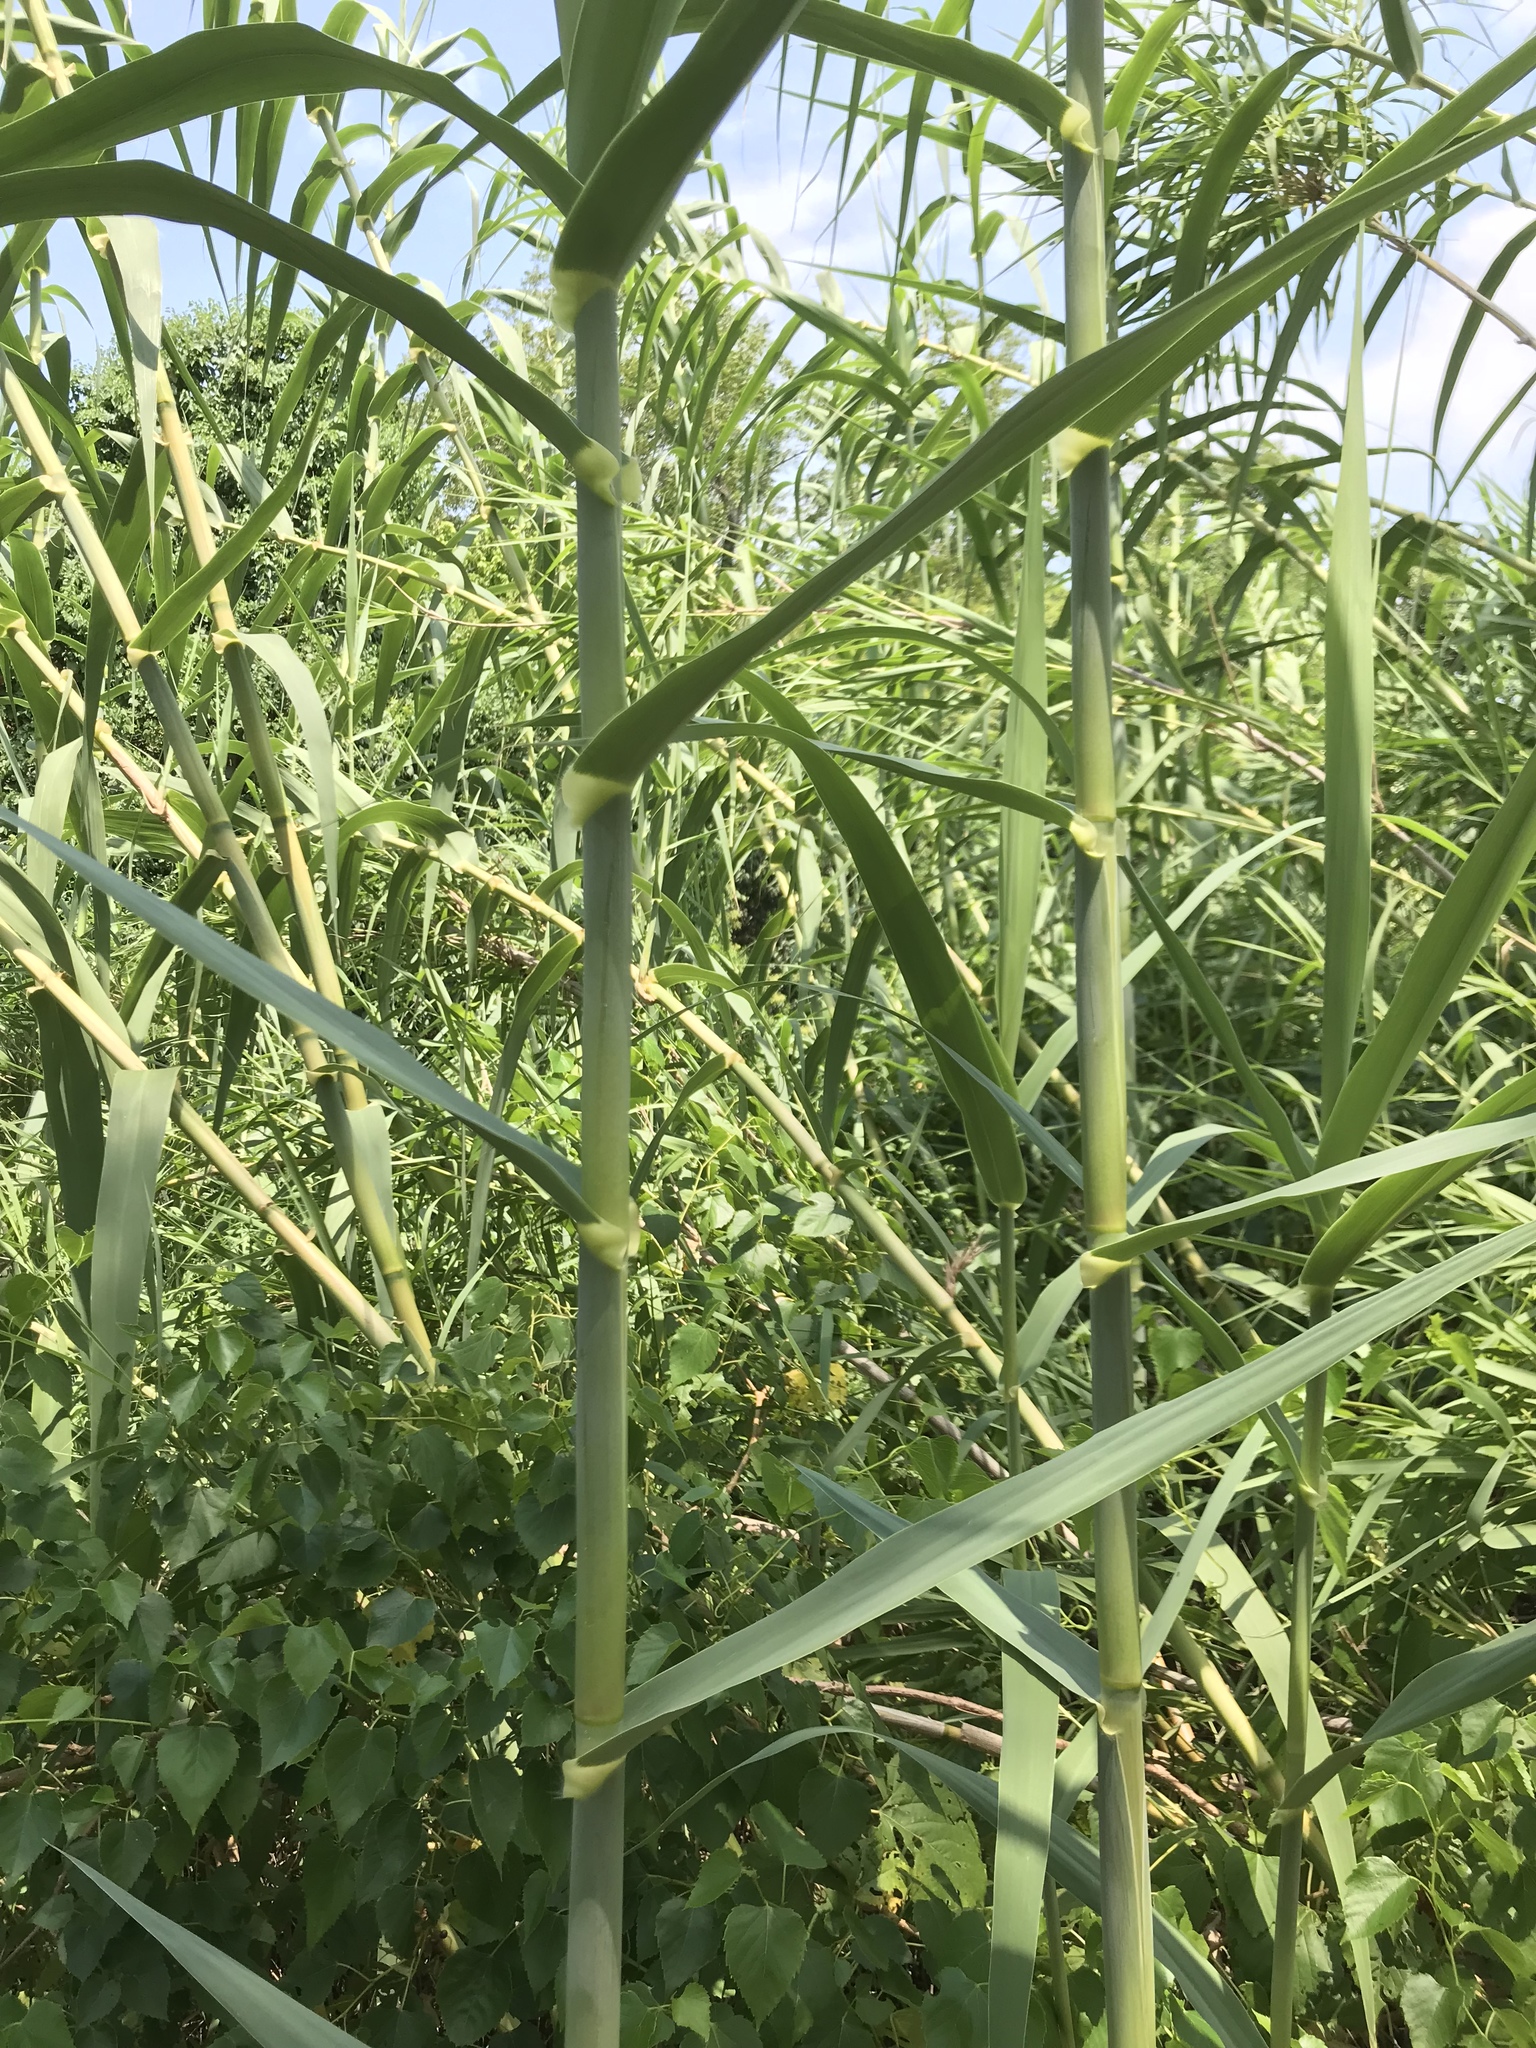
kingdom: Plantae
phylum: Tracheophyta
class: Liliopsida
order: Poales
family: Poaceae
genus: Arundo
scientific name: Arundo donax
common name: Giant reed
